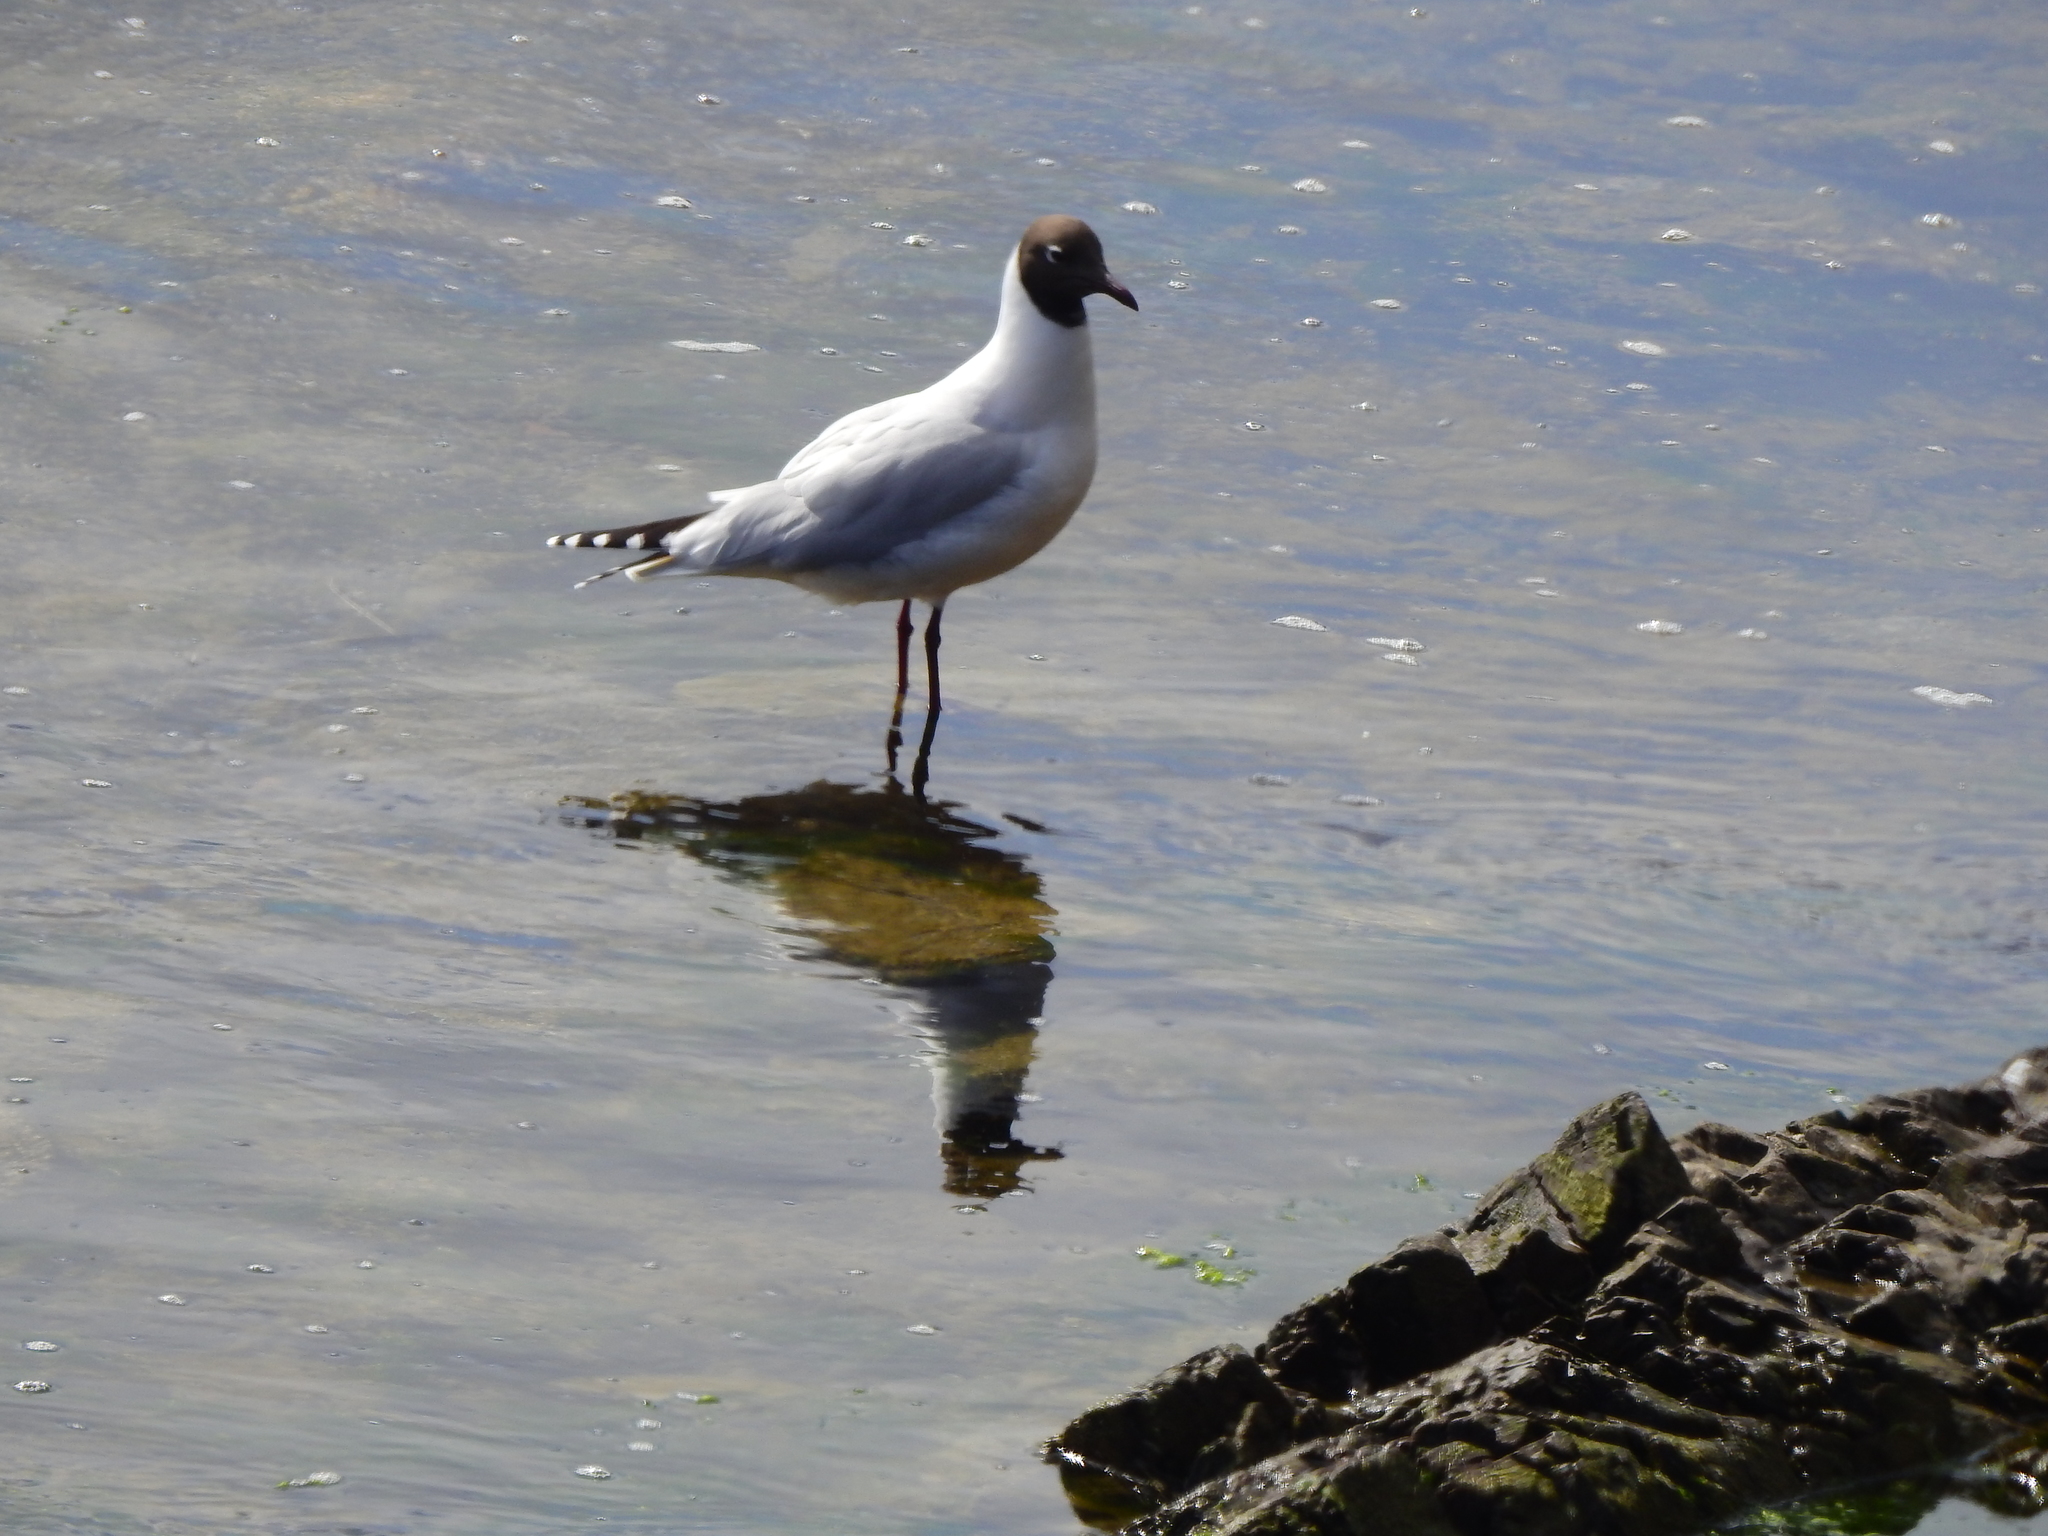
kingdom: Animalia
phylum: Chordata
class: Aves
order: Charadriiformes
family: Laridae
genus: Chroicocephalus
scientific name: Chroicocephalus maculipennis
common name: Brown-hooded gull
